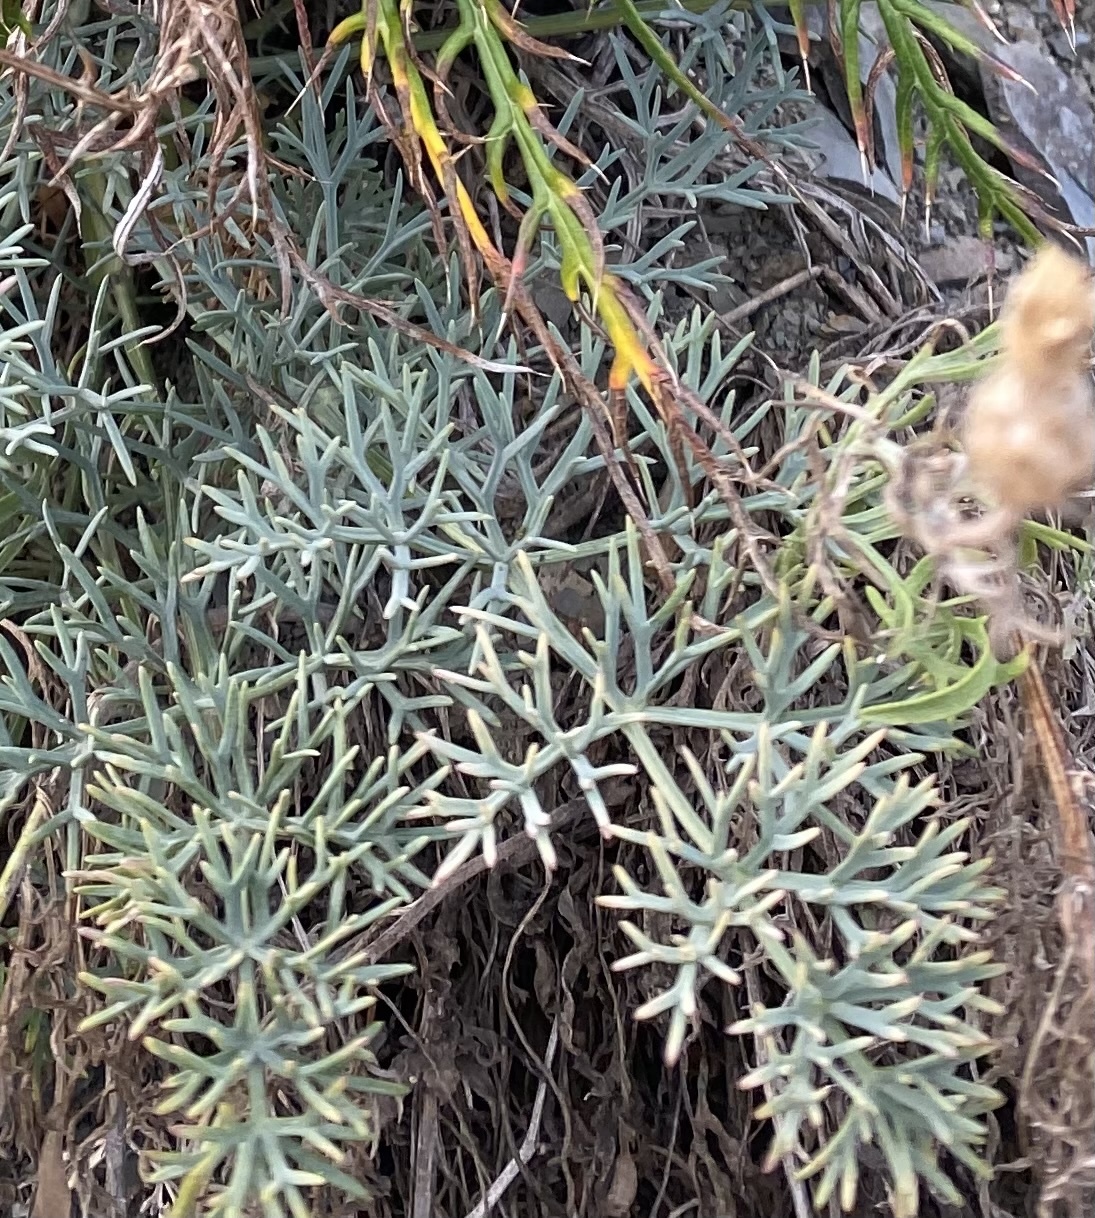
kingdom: Plantae
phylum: Tracheophyta
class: Magnoliopsida
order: Apiales
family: Apiaceae
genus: Seseli
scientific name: Seseli ponticum
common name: Pontic seseli
